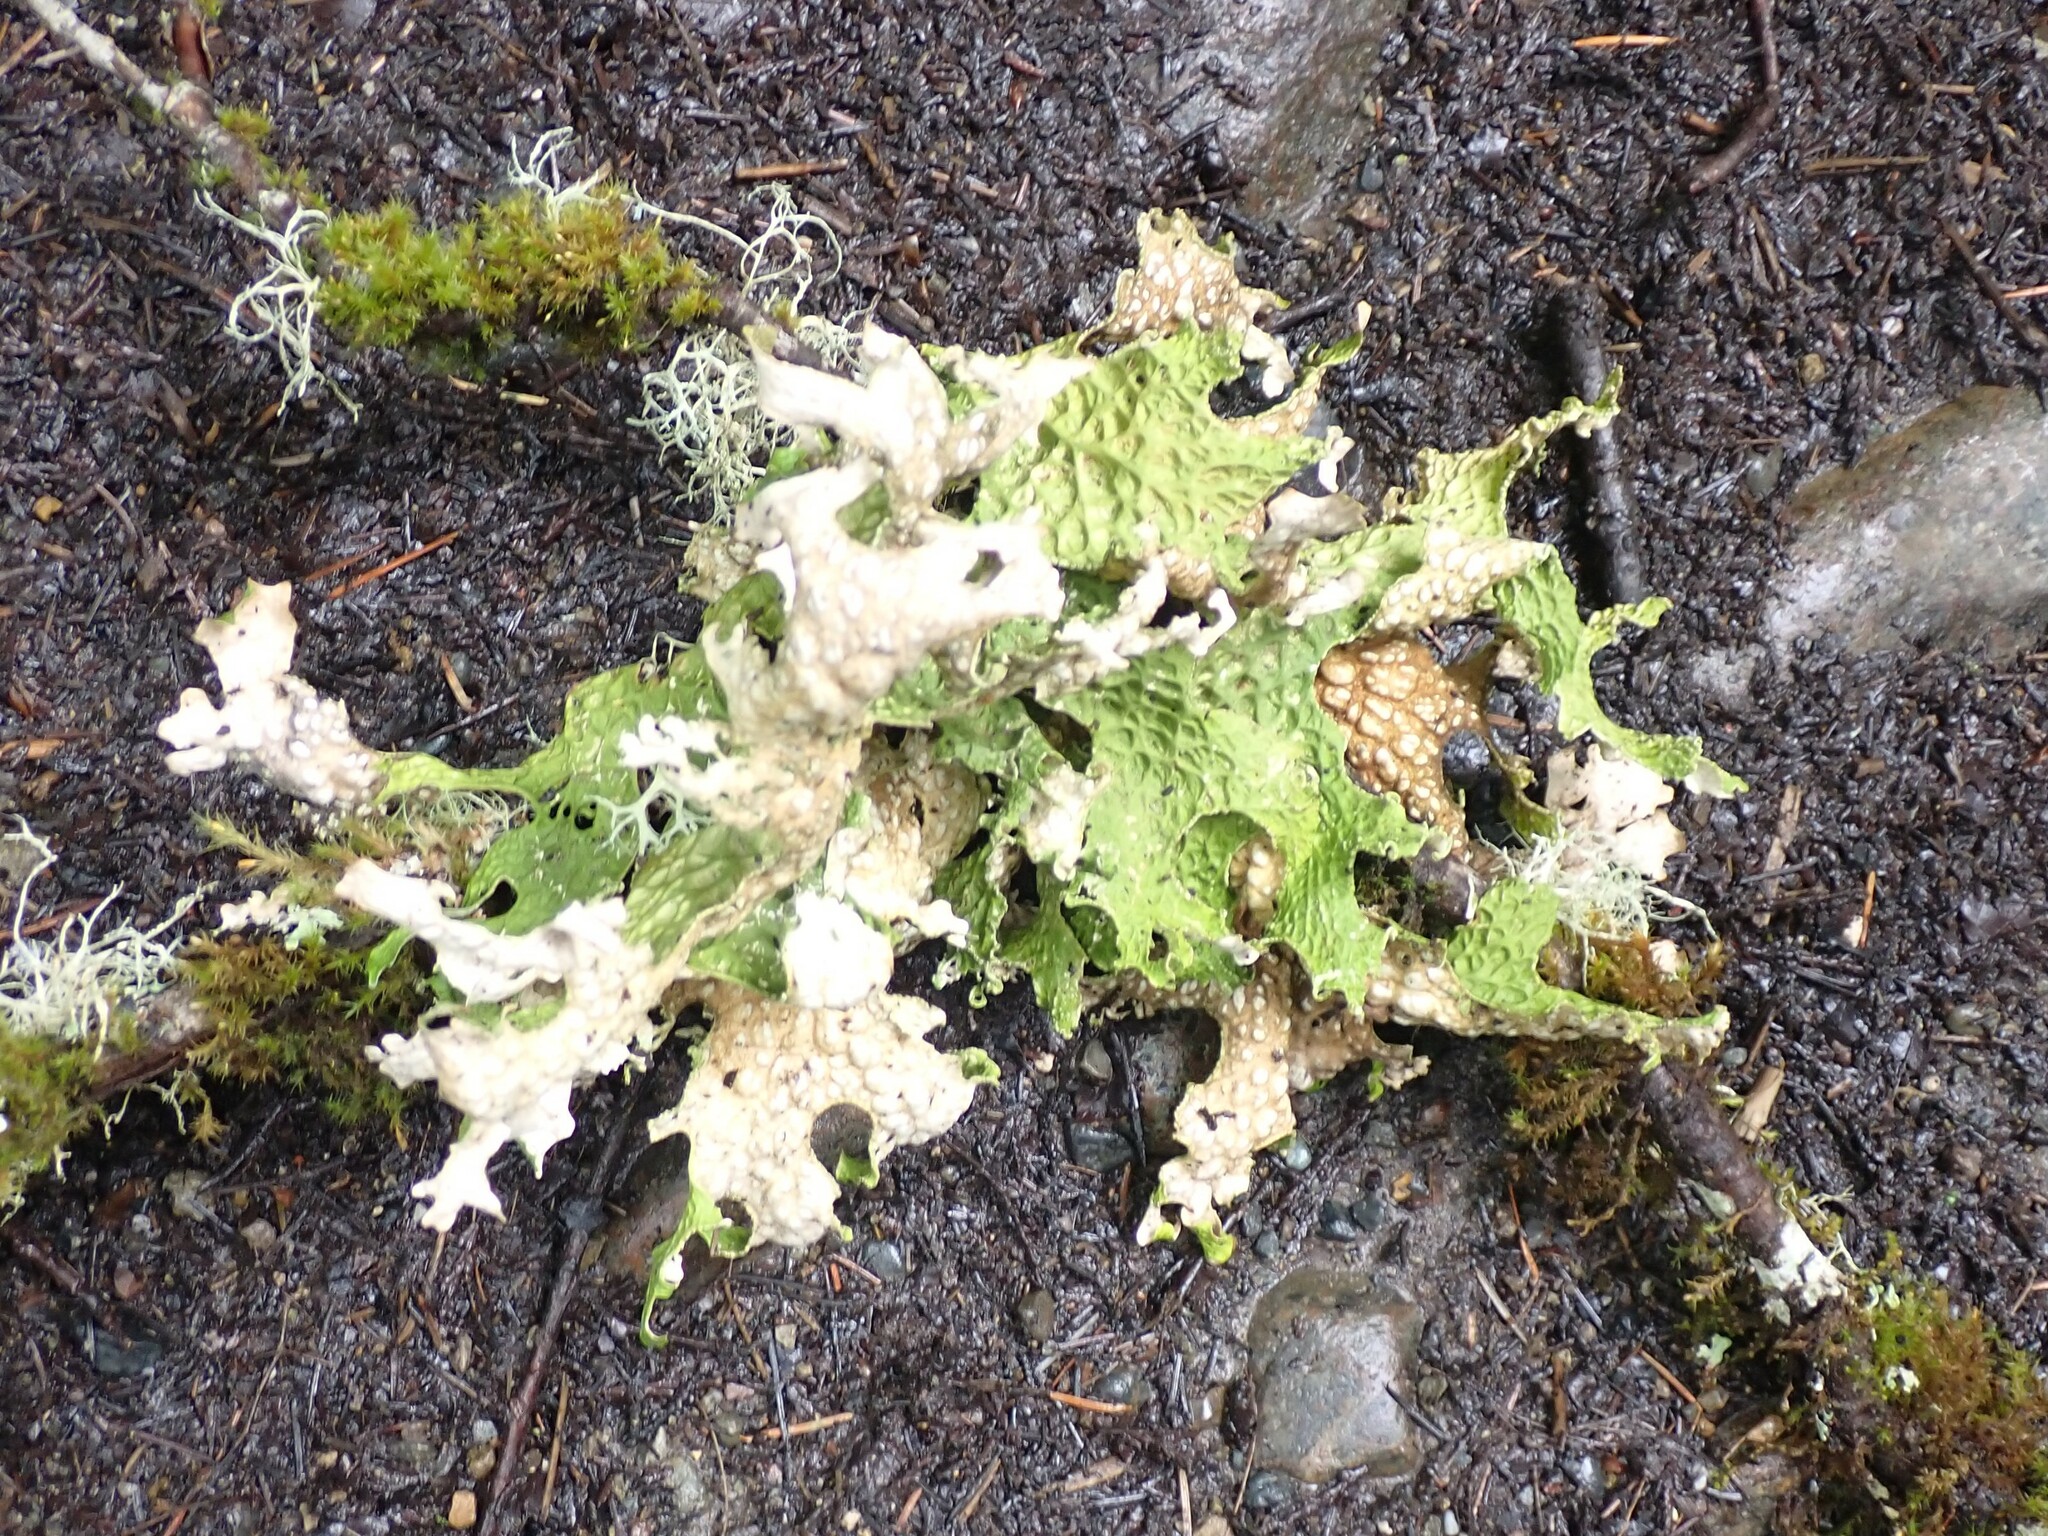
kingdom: Fungi
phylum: Ascomycota
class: Lecanoromycetes
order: Peltigerales
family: Lobariaceae
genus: Lobaria
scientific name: Lobaria pulmonaria
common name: Lungwort
